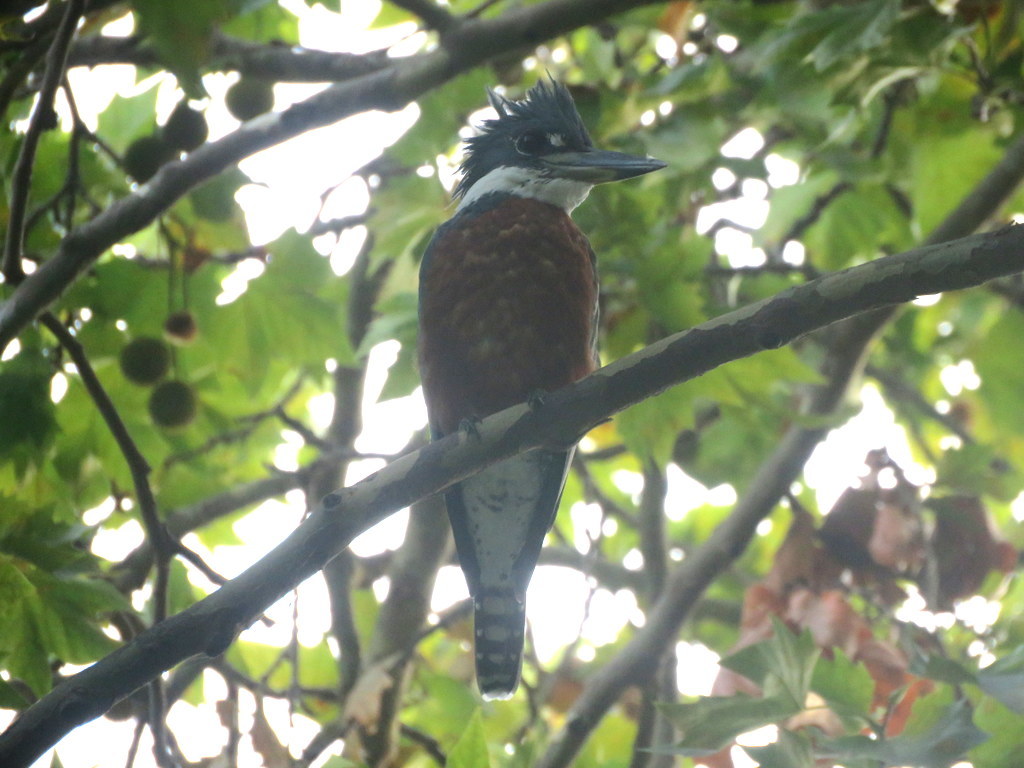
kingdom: Animalia
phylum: Chordata
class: Aves
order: Coraciiformes
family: Alcedinidae
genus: Megaceryle
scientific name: Megaceryle torquata
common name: Ringed kingfisher
